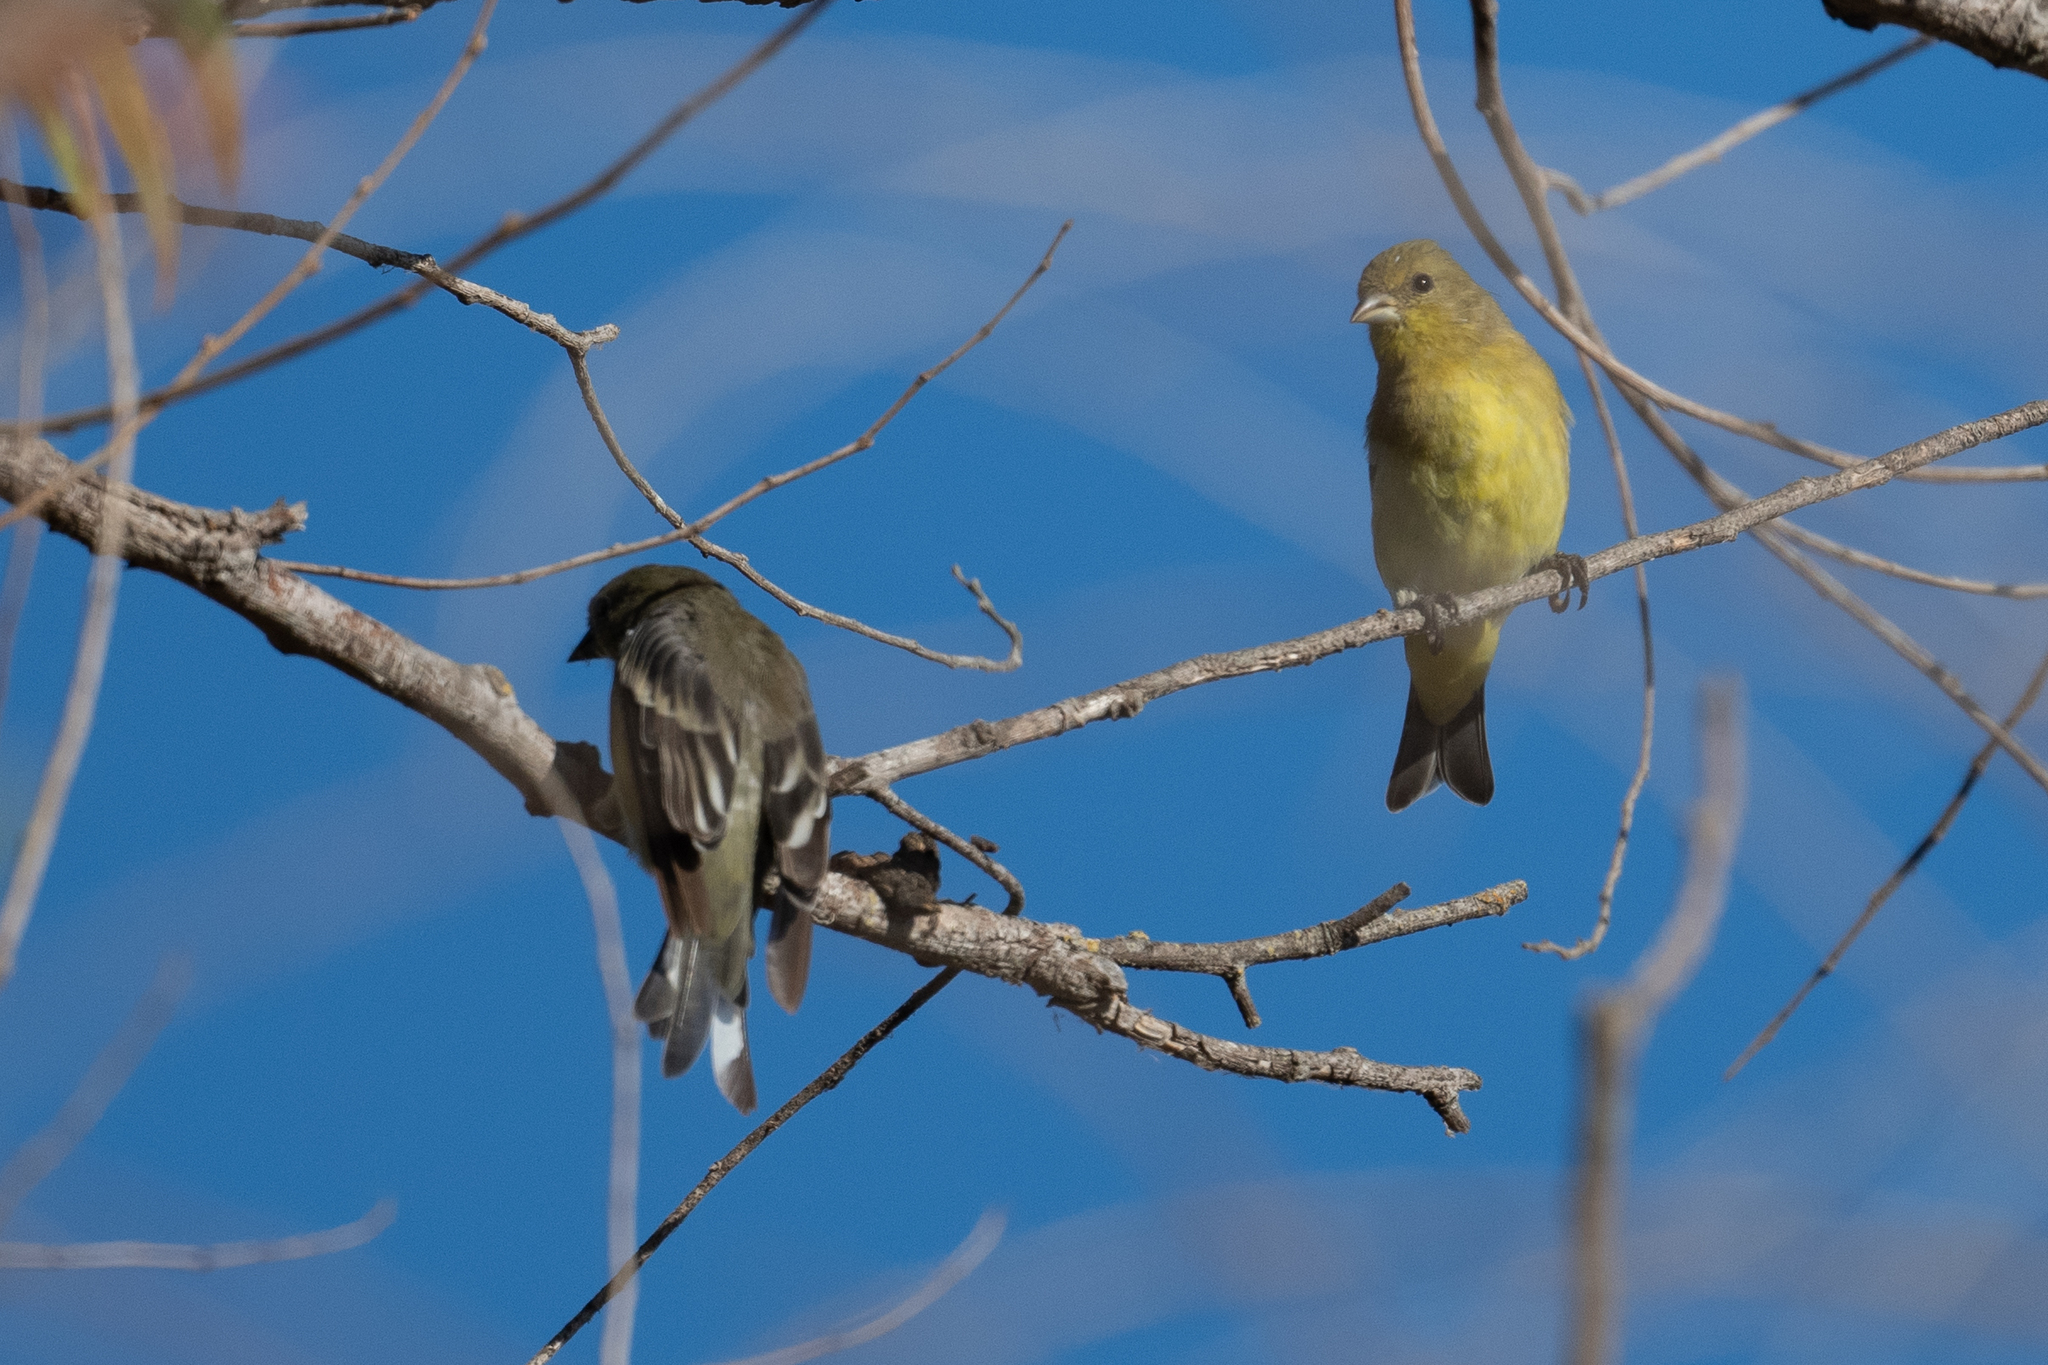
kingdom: Animalia
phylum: Chordata
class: Aves
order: Passeriformes
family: Fringillidae
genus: Spinus
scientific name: Spinus psaltria
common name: Lesser goldfinch
